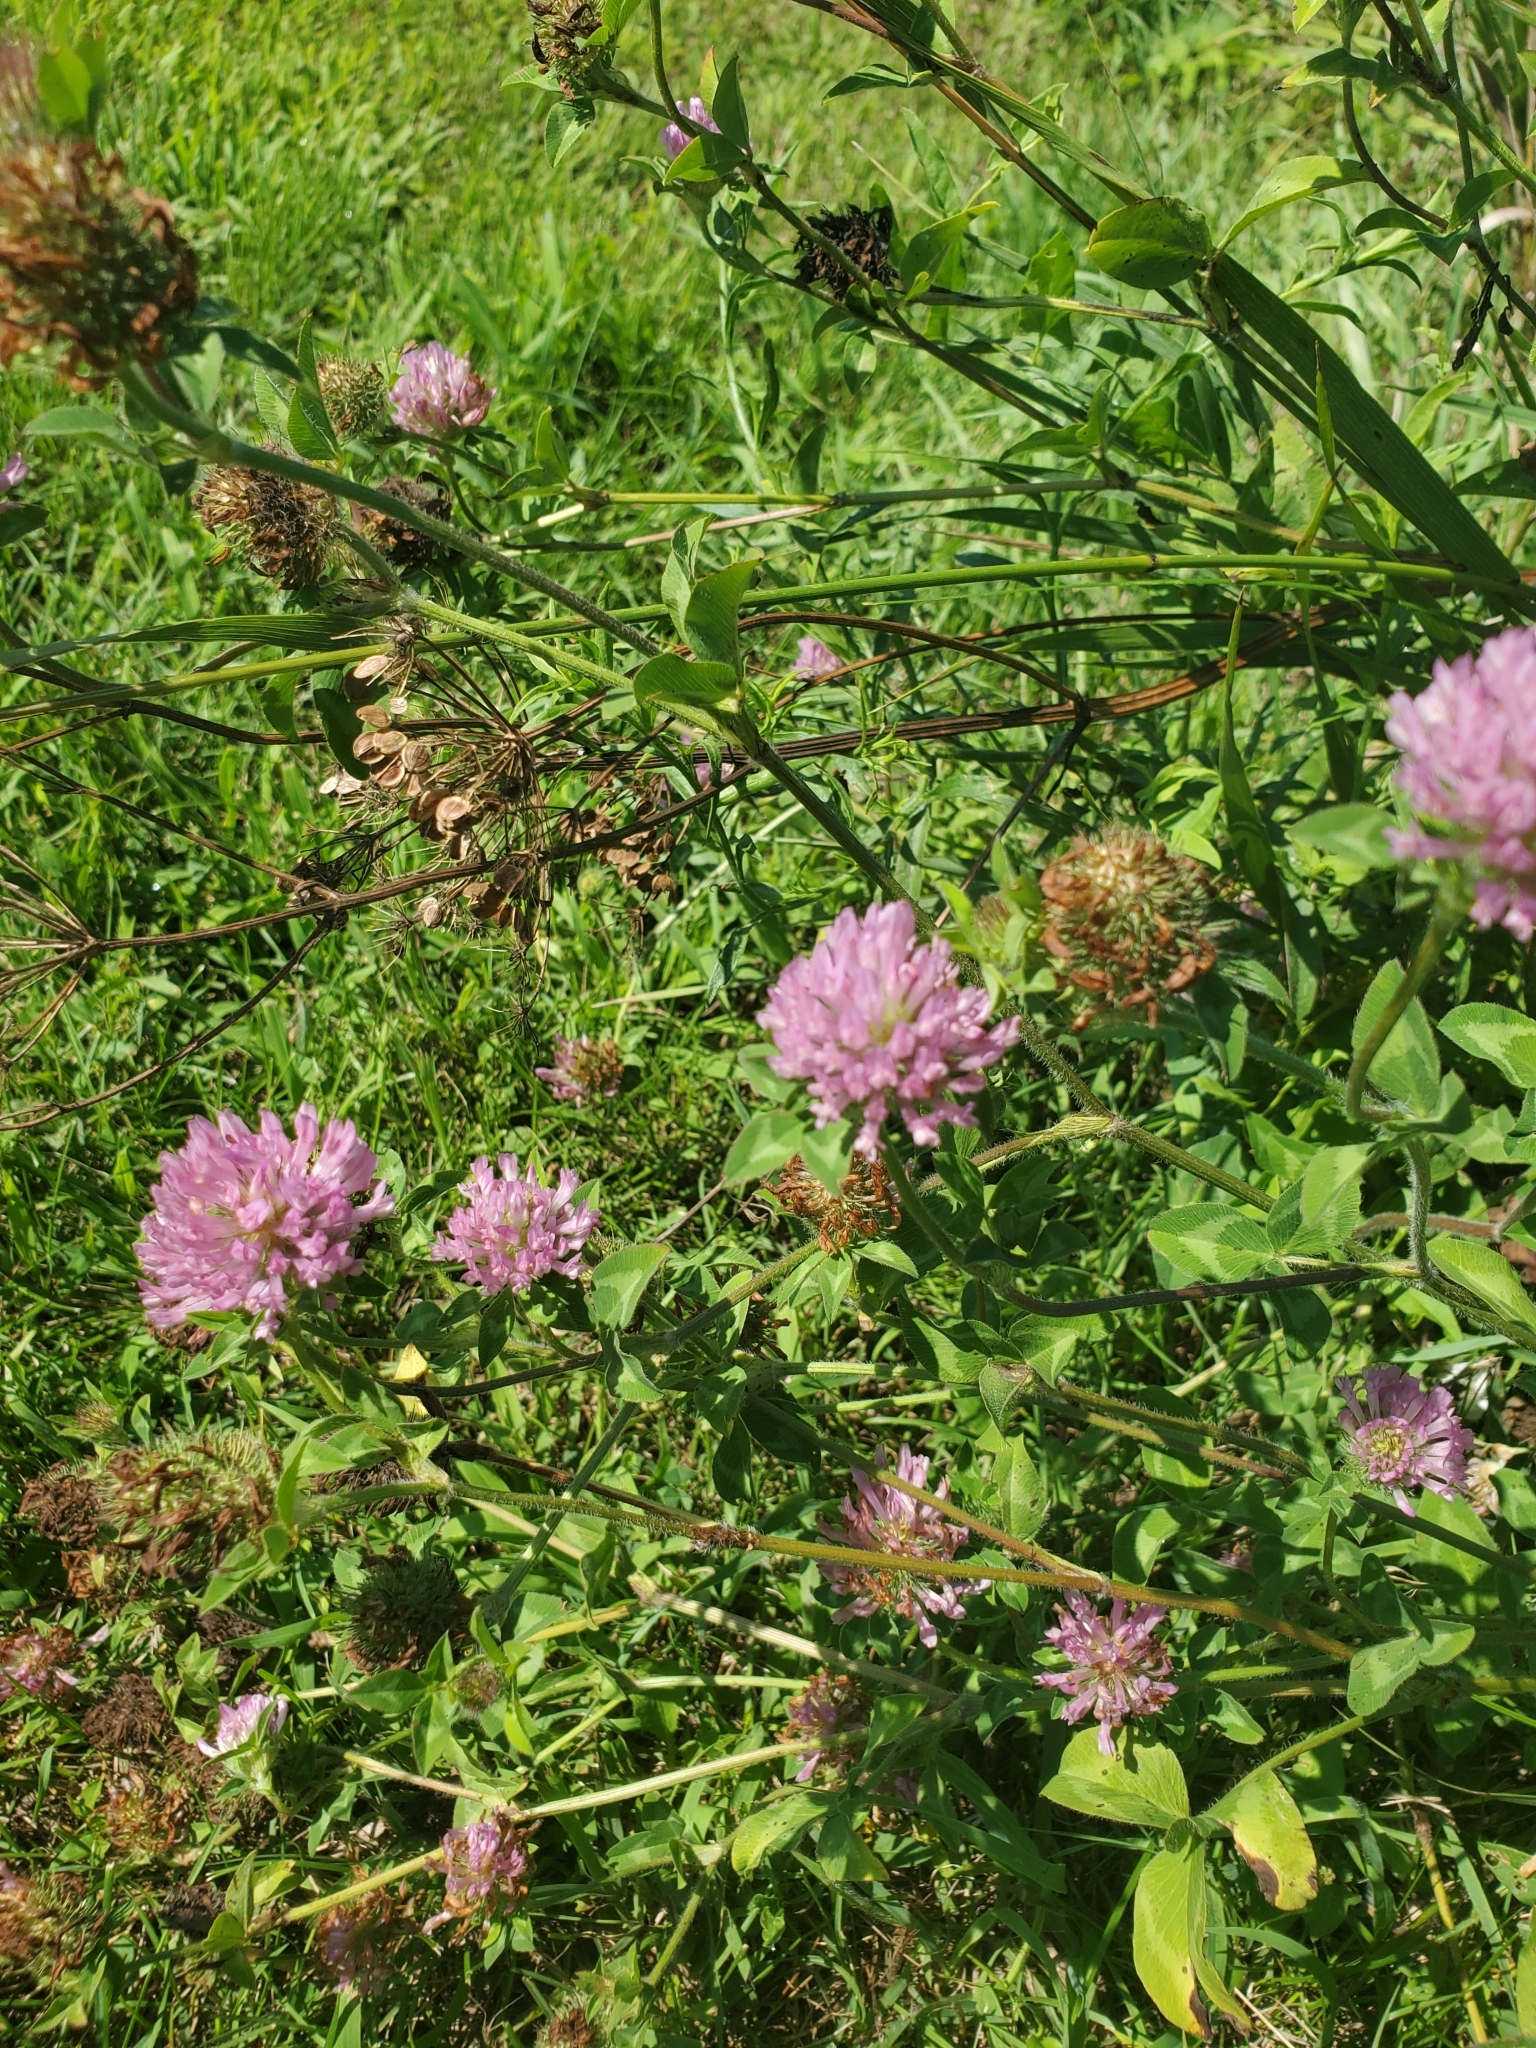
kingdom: Plantae
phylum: Tracheophyta
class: Magnoliopsida
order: Fabales
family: Fabaceae
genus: Trifolium
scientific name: Trifolium pratense
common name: Red clover
